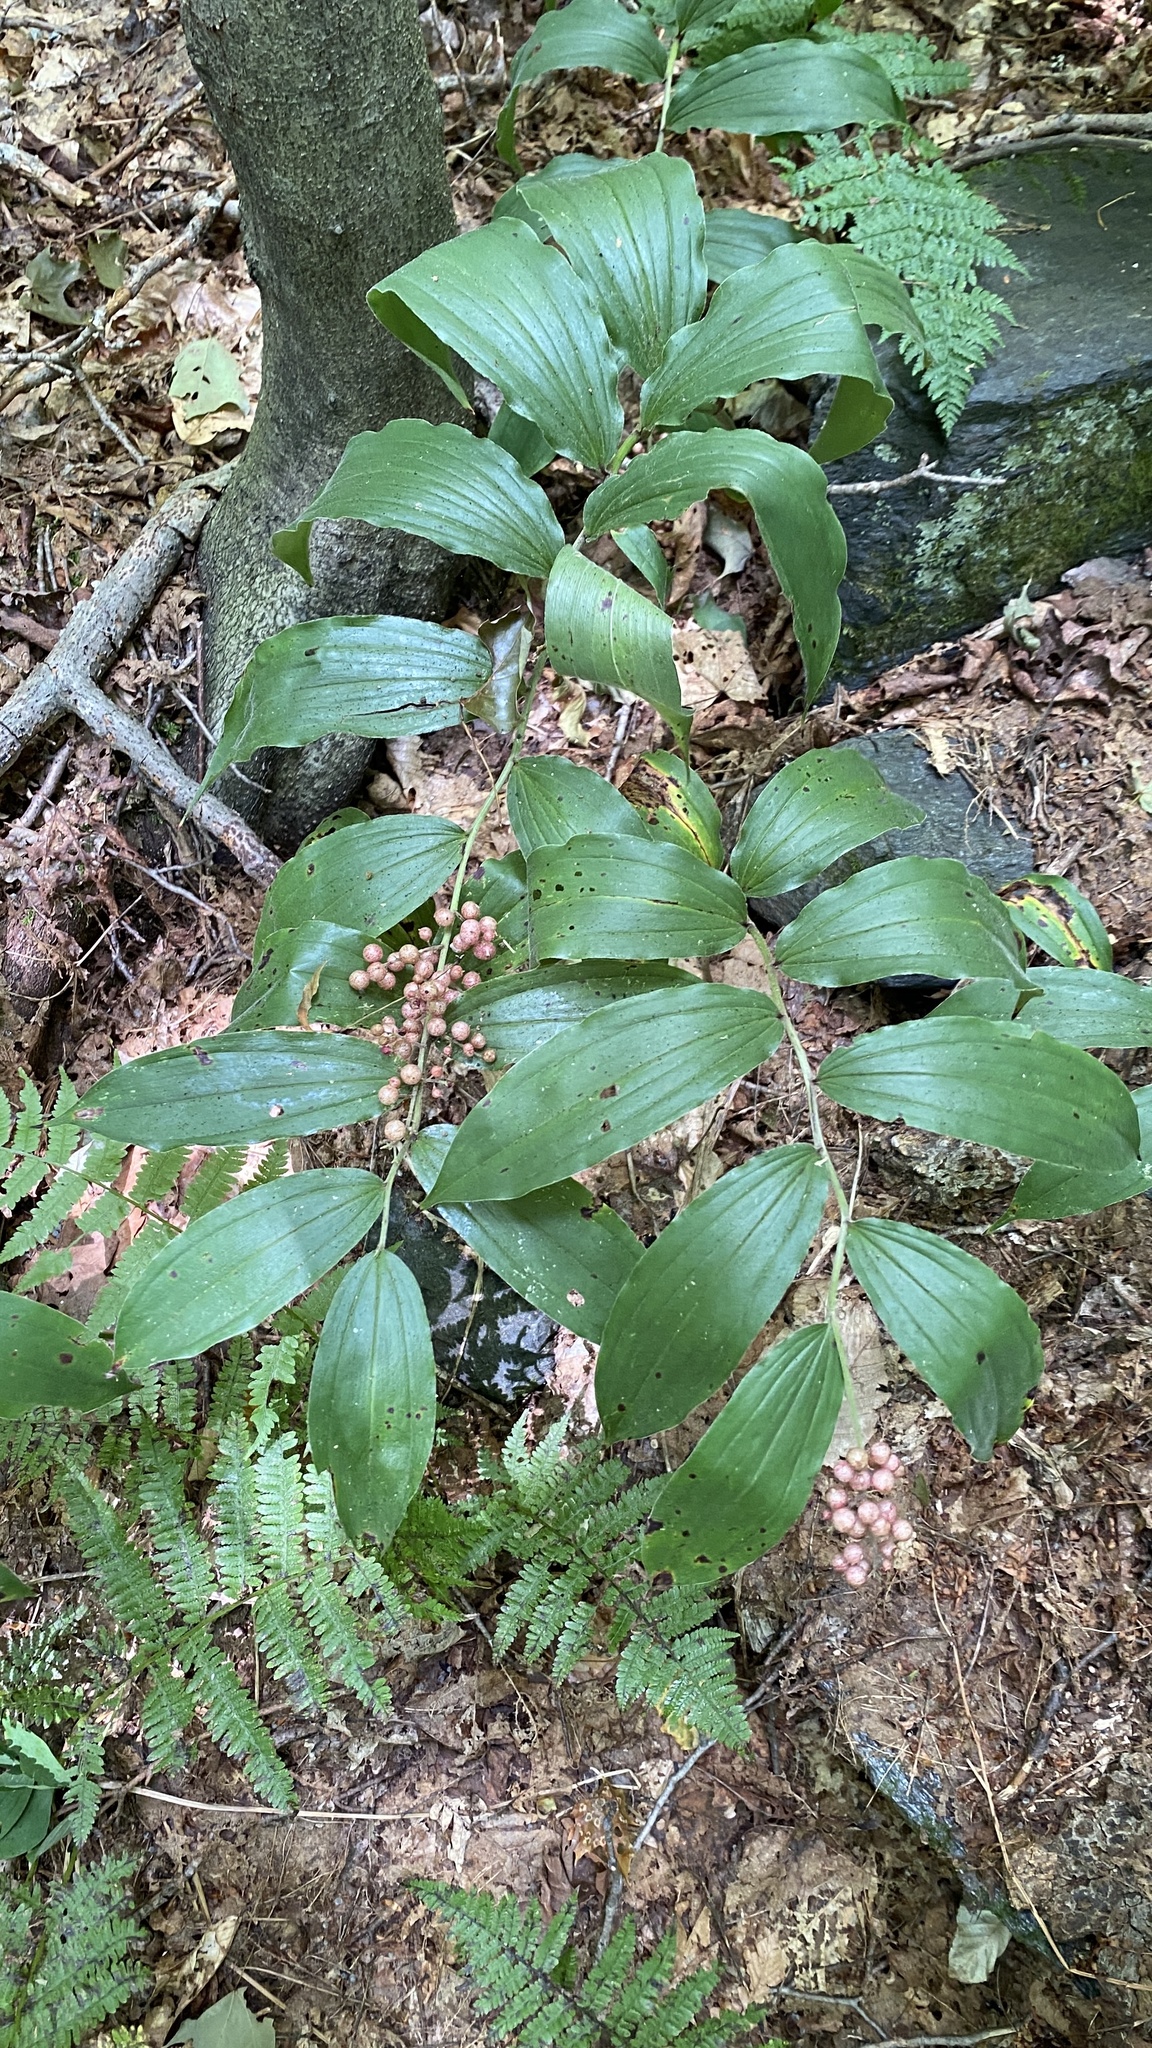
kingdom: Plantae
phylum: Tracheophyta
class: Liliopsida
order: Asparagales
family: Asparagaceae
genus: Maianthemum
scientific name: Maianthemum racemosum
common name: False spikenard
